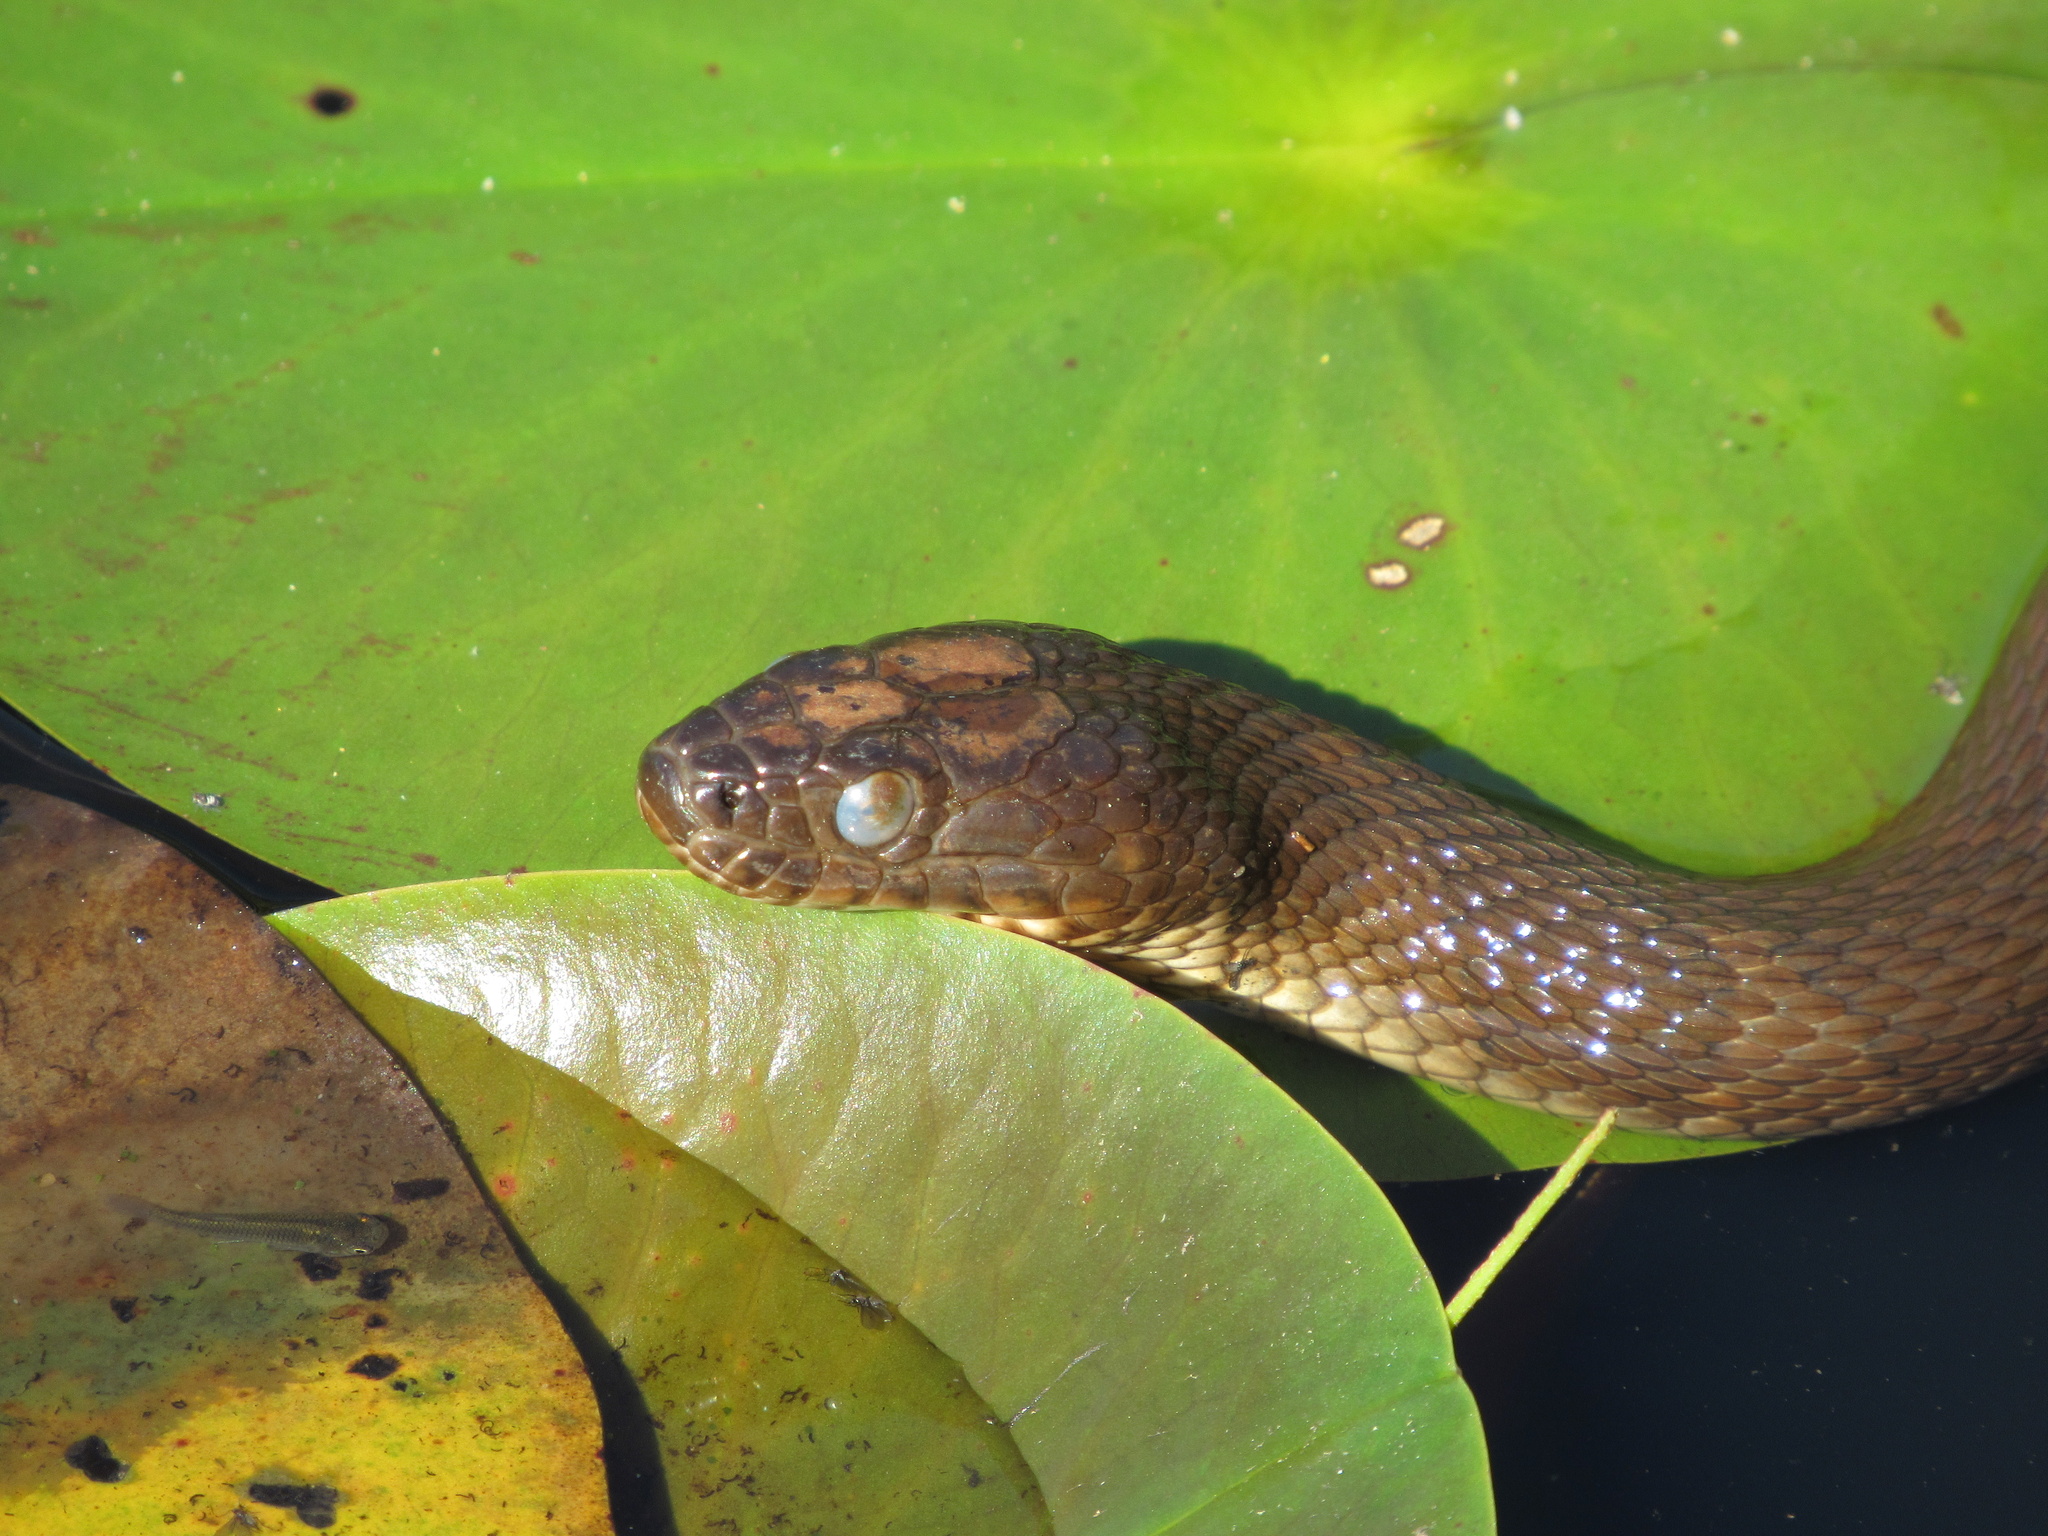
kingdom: Animalia
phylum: Chordata
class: Squamata
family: Colubridae
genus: Nerodia
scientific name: Nerodia sipedon
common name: Northern water snake
